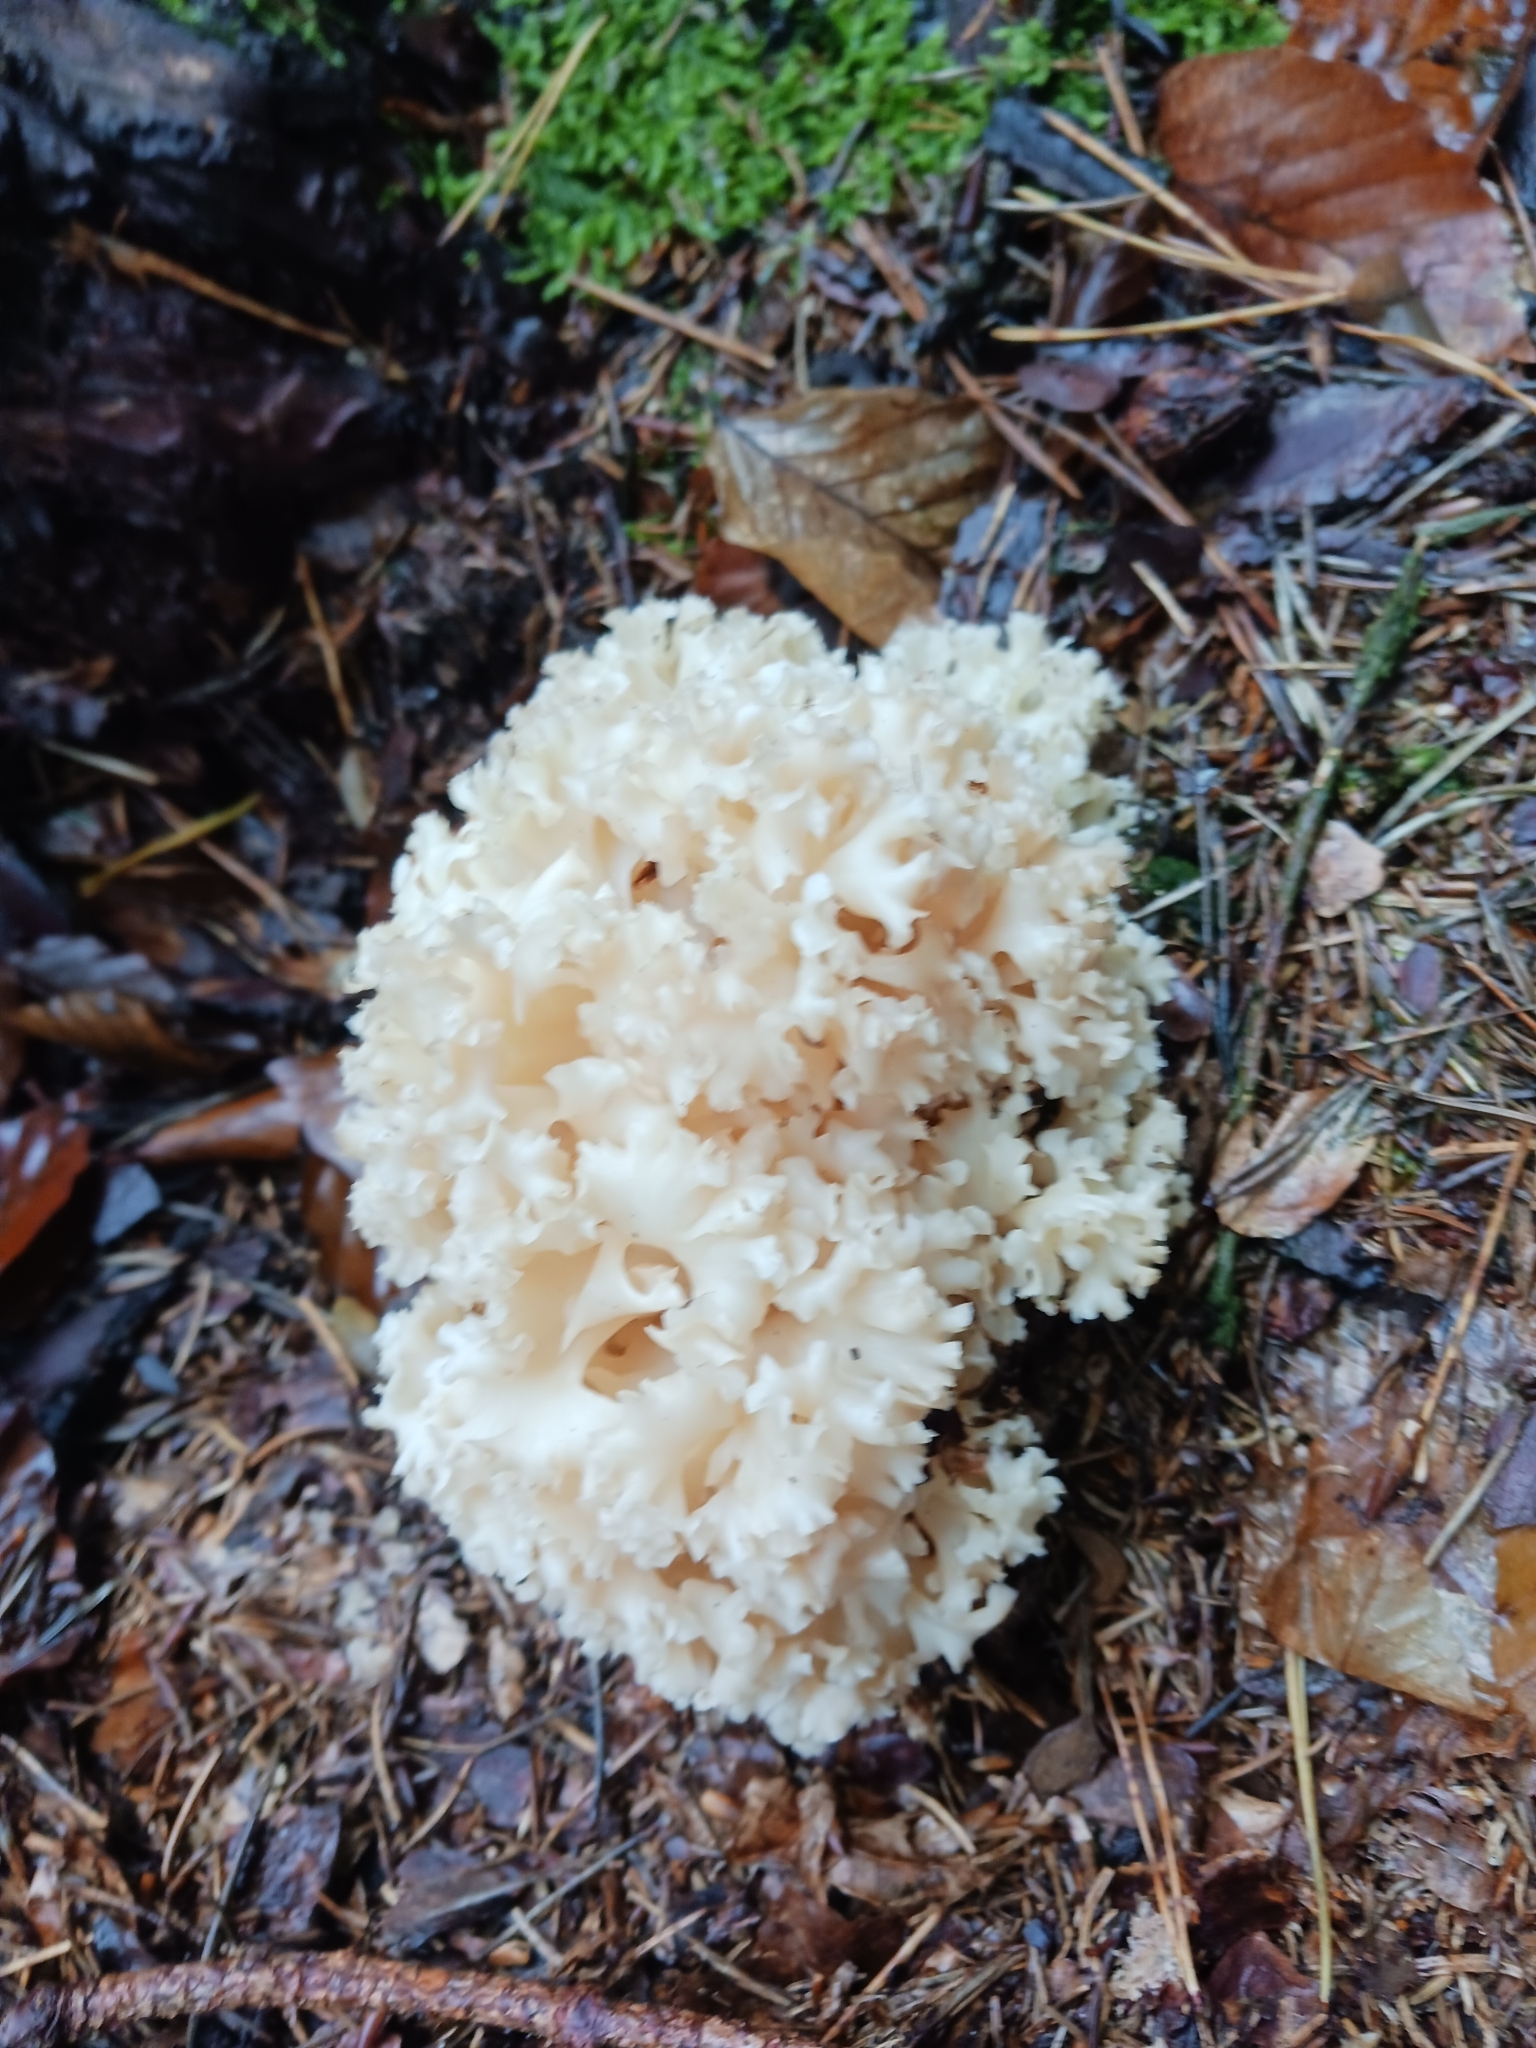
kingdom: Fungi
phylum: Basidiomycota
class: Agaricomycetes
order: Polyporales
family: Sparassidaceae
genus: Sparassis
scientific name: Sparassis crispa
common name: Brain fungus
